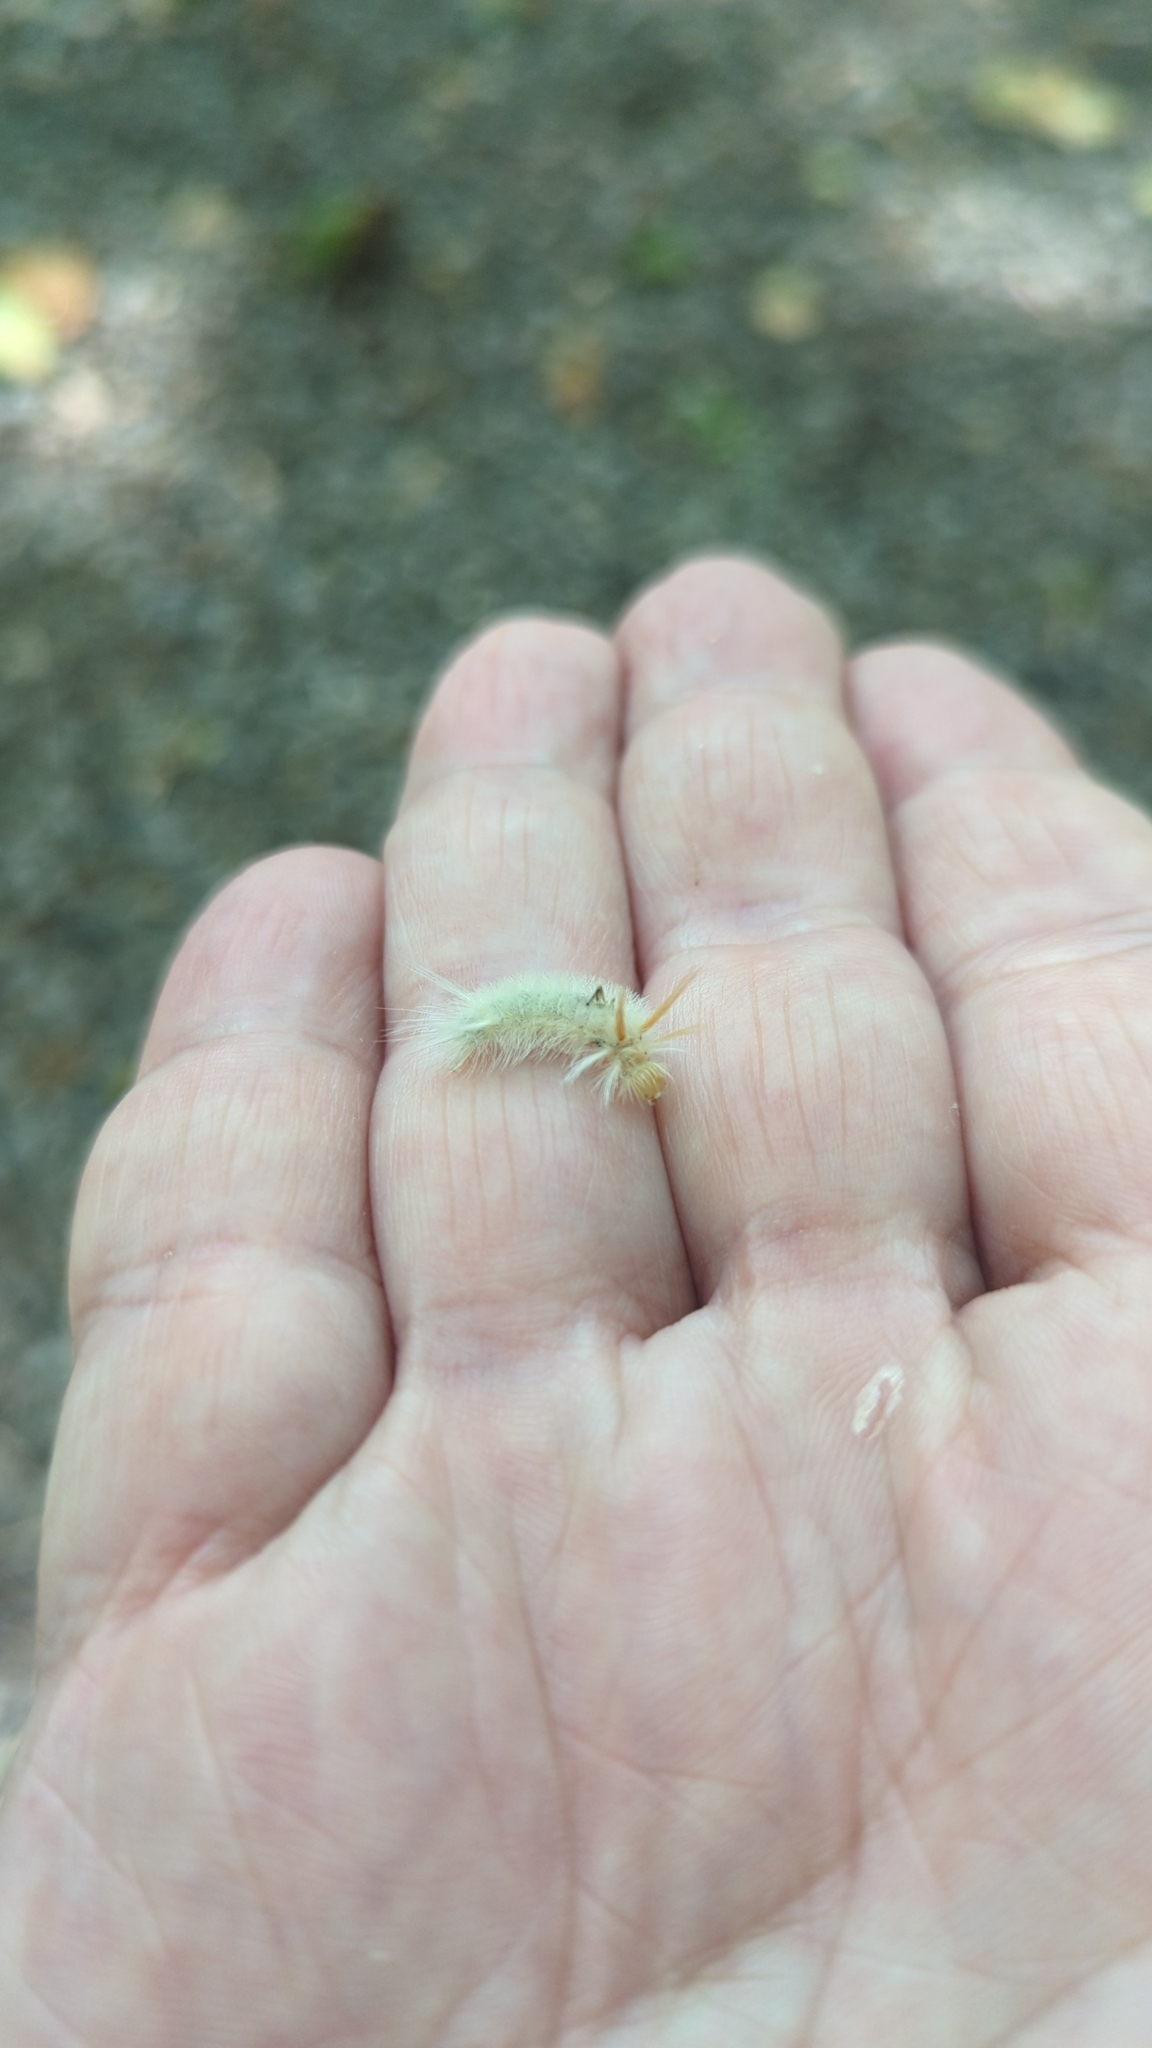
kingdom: Animalia
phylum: Arthropoda
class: Insecta
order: Lepidoptera
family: Erebidae
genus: Halysidota
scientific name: Halysidota harrisii
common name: Sycamore tussock moth
